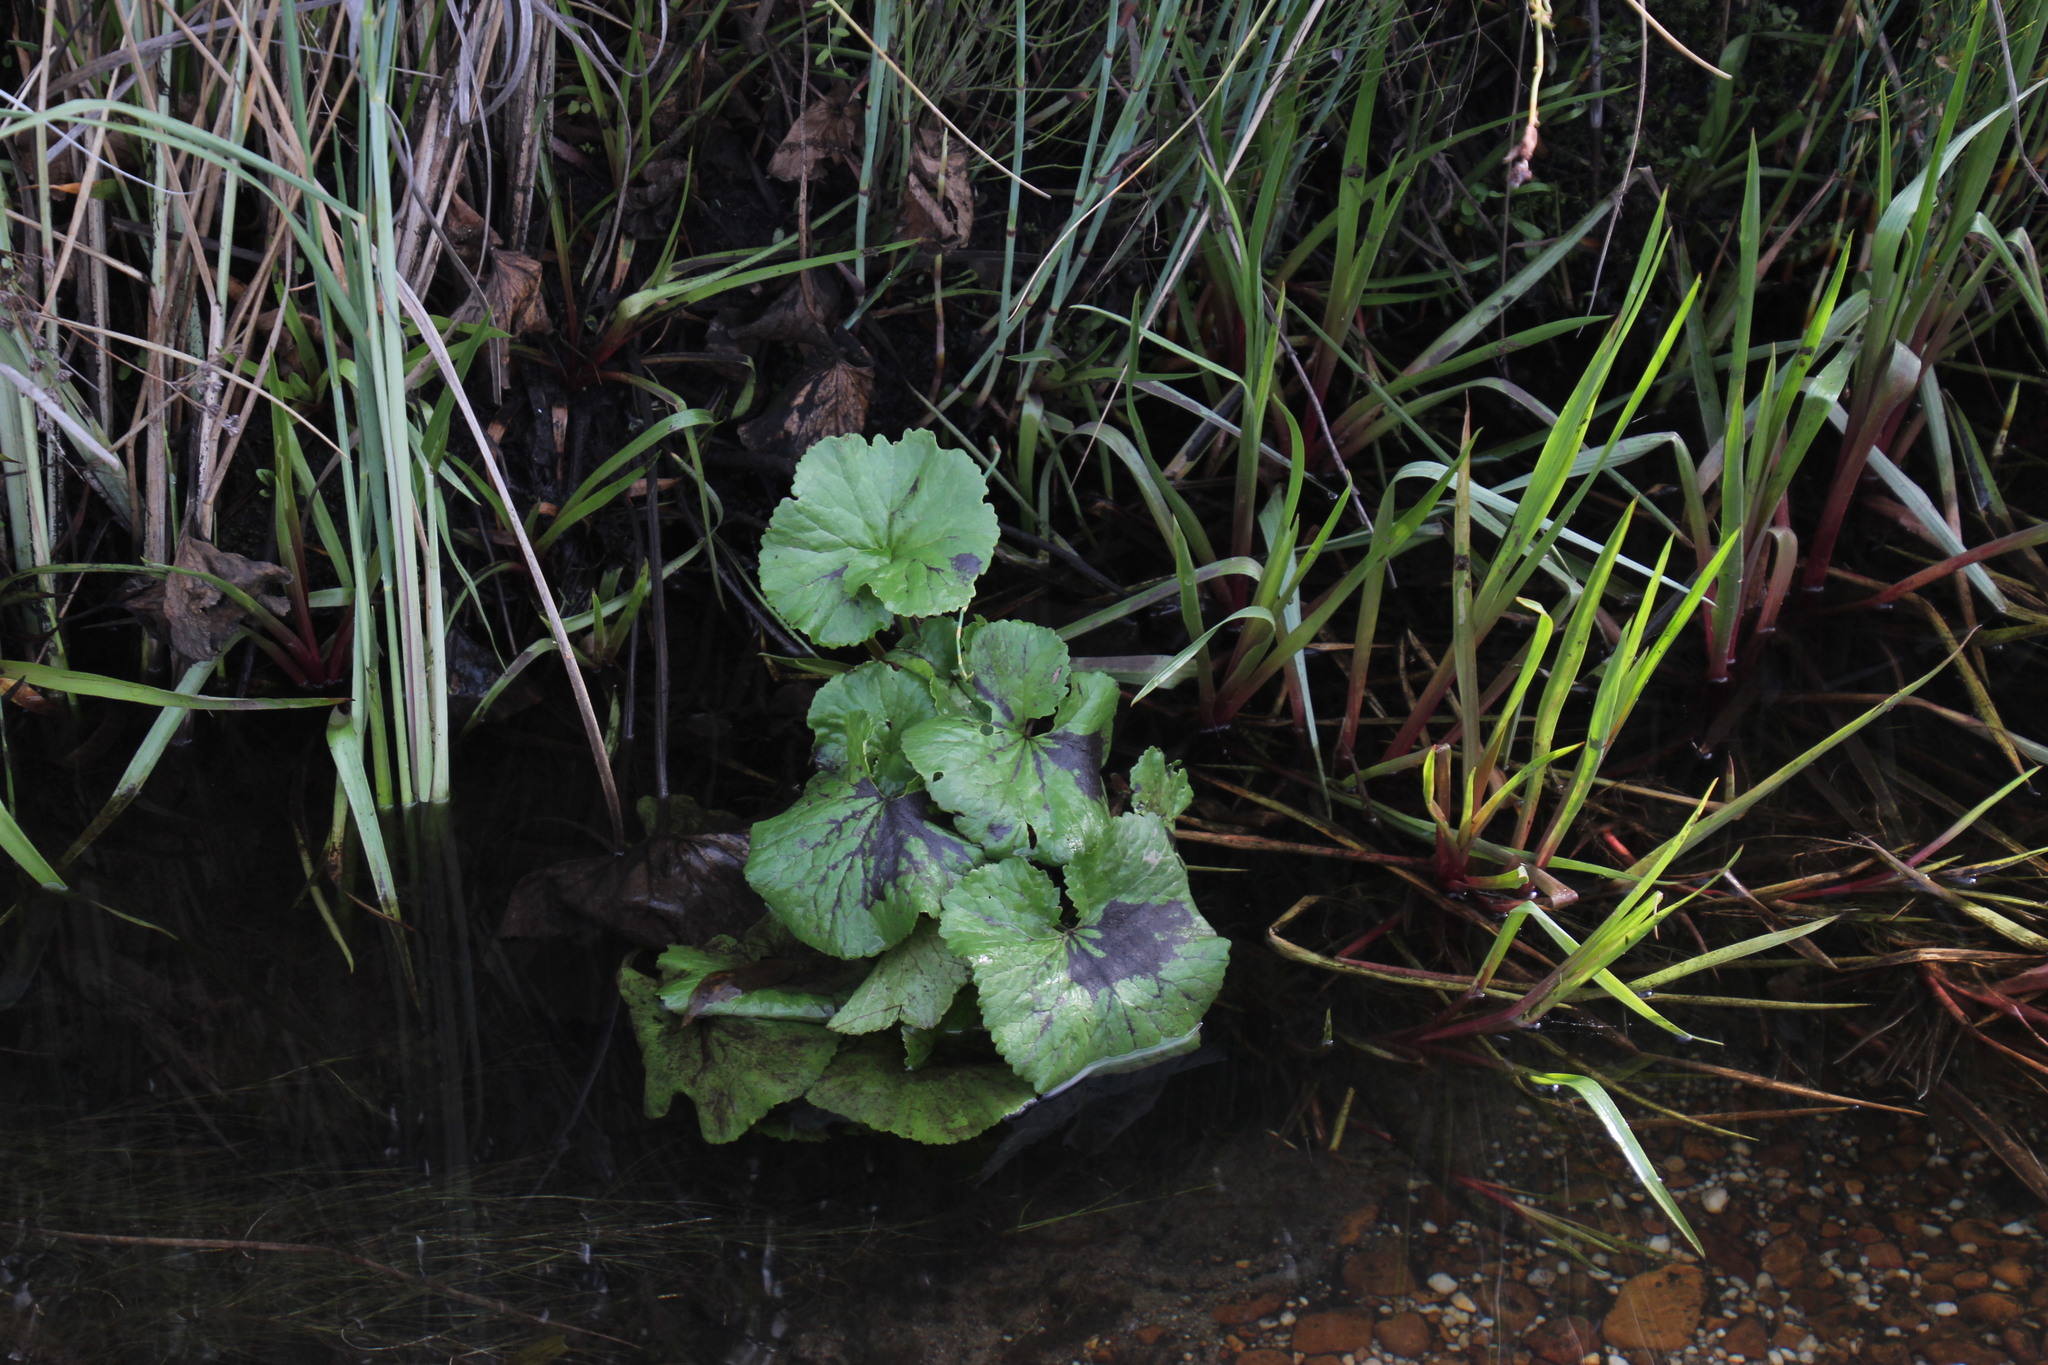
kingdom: Plantae
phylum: Tracheophyta
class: Magnoliopsida
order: Gunnerales
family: Gunneraceae
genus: Gunnera
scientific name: Gunnera perpensa
